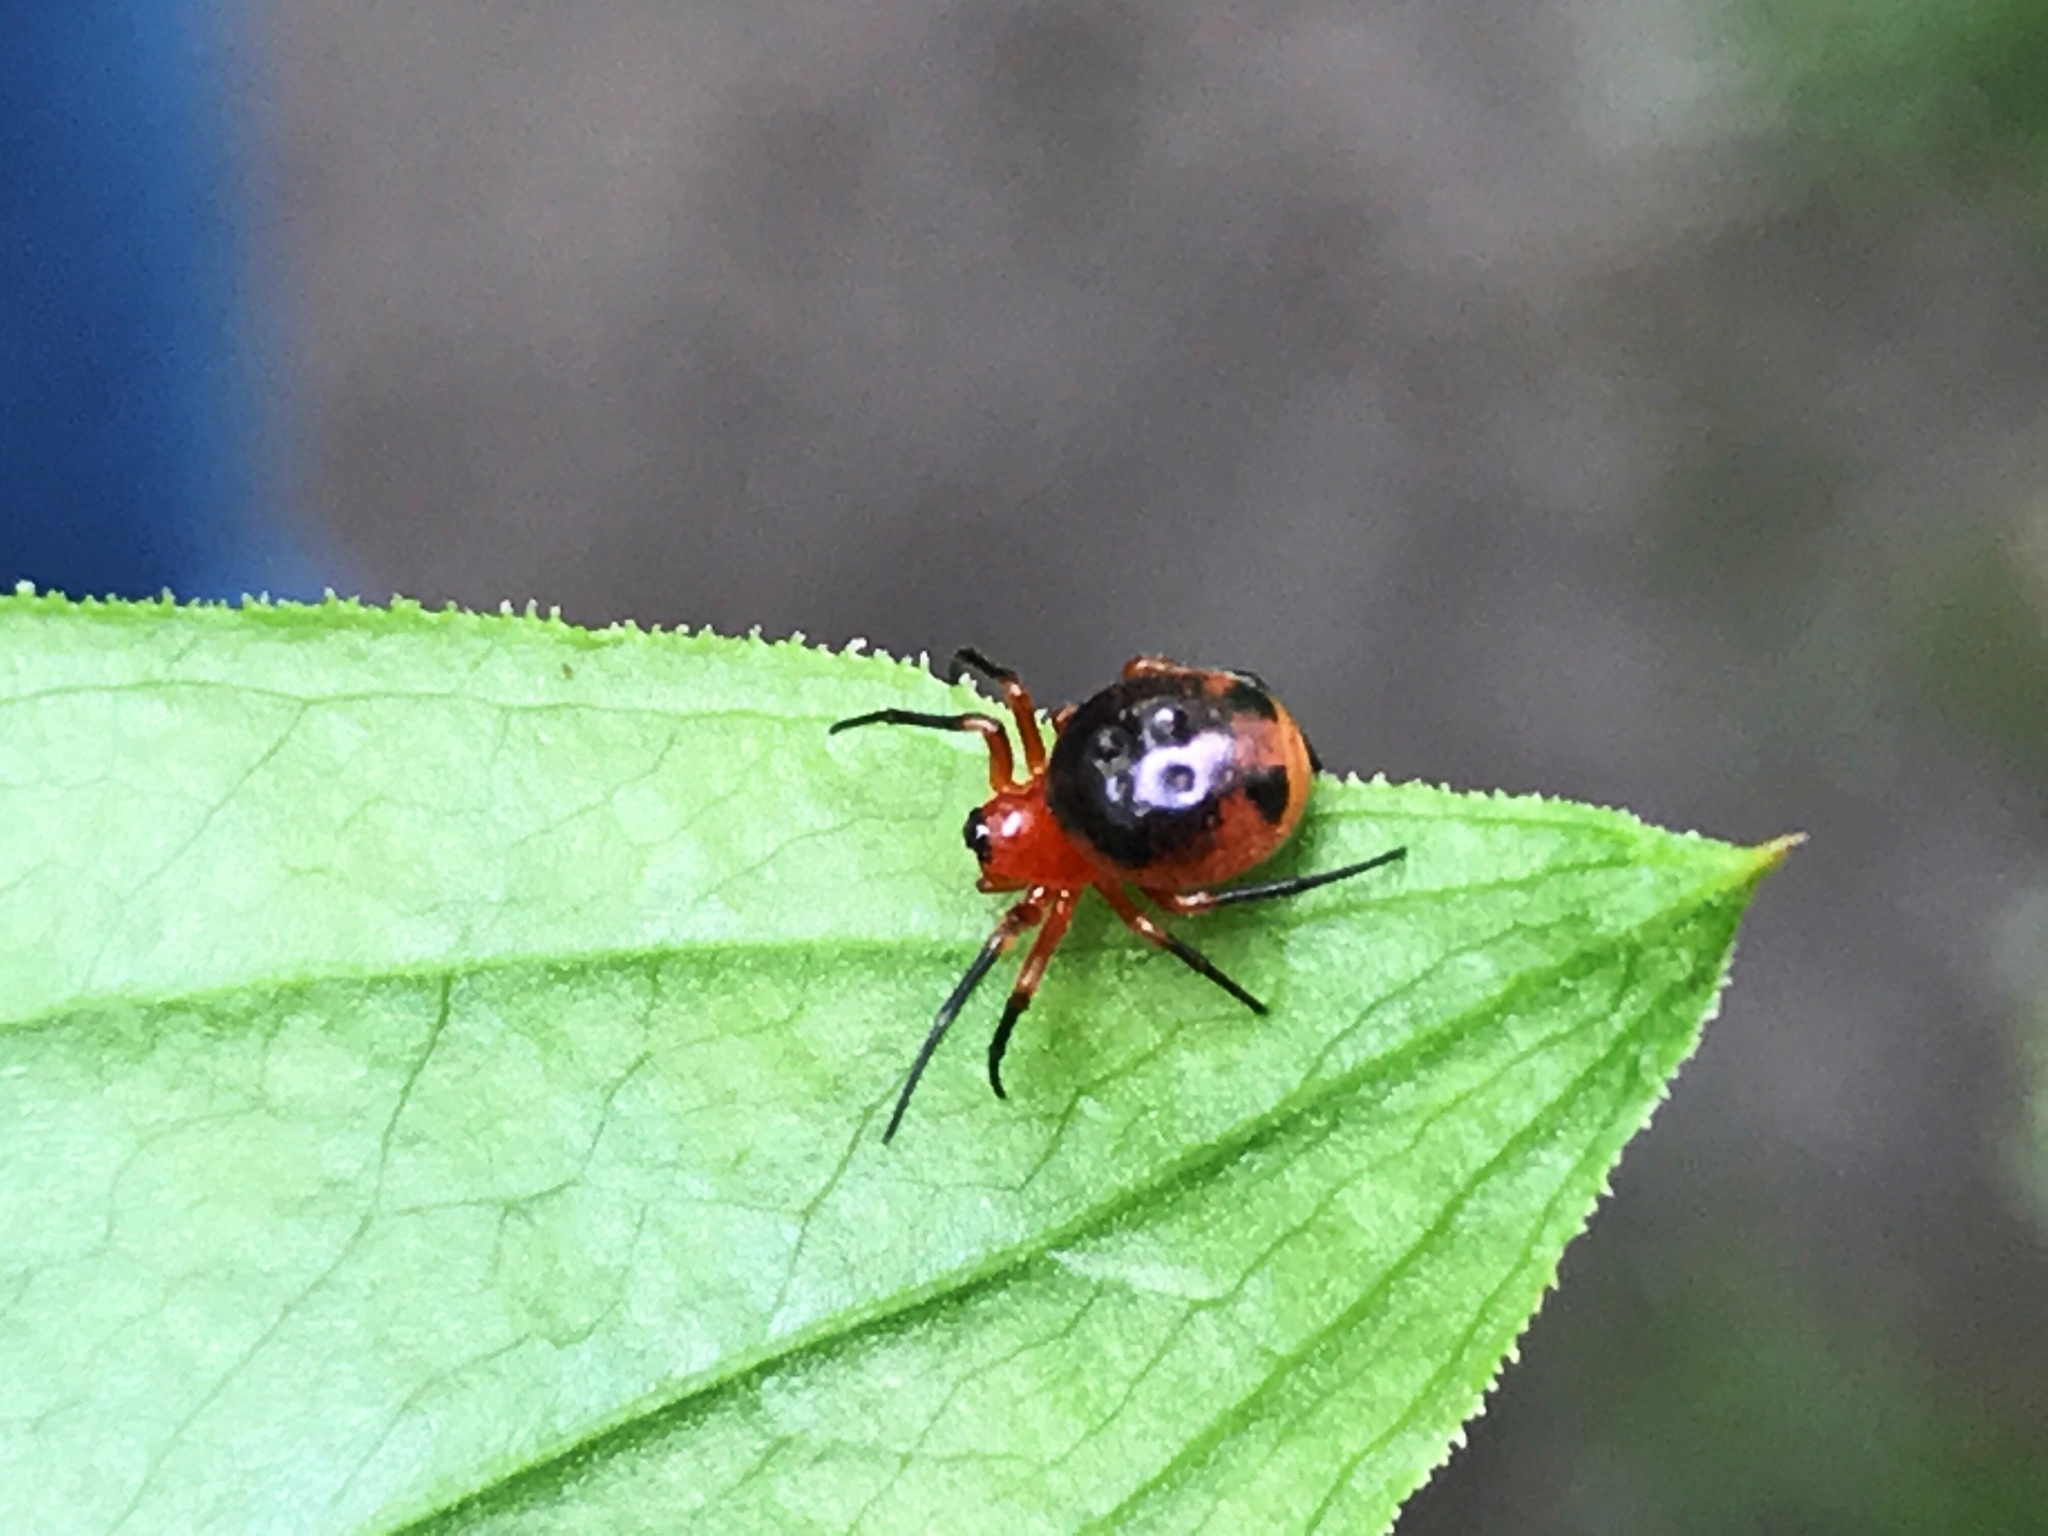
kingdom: Animalia
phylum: Arthropoda
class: Arachnida
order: Araneae
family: Araneidae
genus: Hypsosinga
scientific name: Hypsosinga rubens
